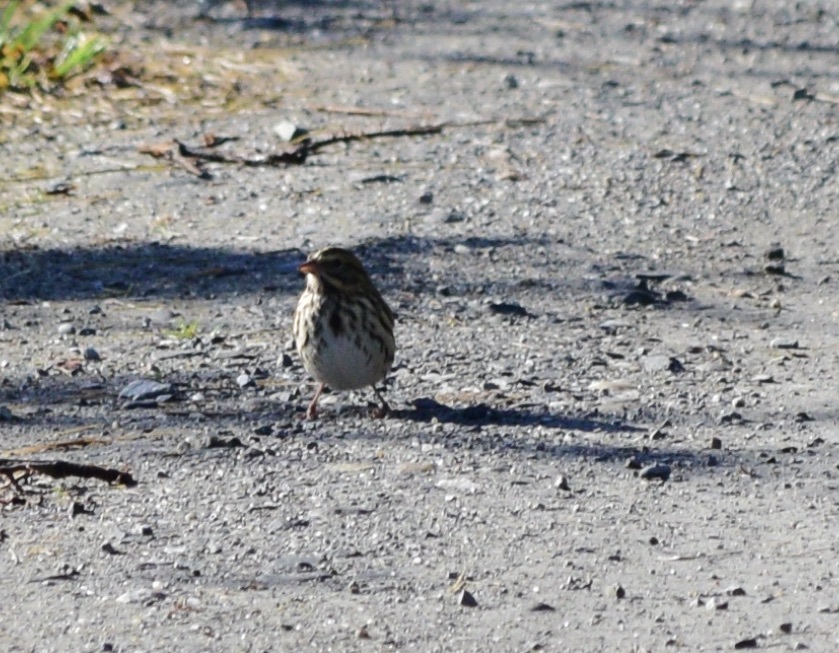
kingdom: Animalia
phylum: Chordata
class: Aves
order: Passeriformes
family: Passerellidae
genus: Passerculus
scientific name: Passerculus sandwichensis
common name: Savannah sparrow
